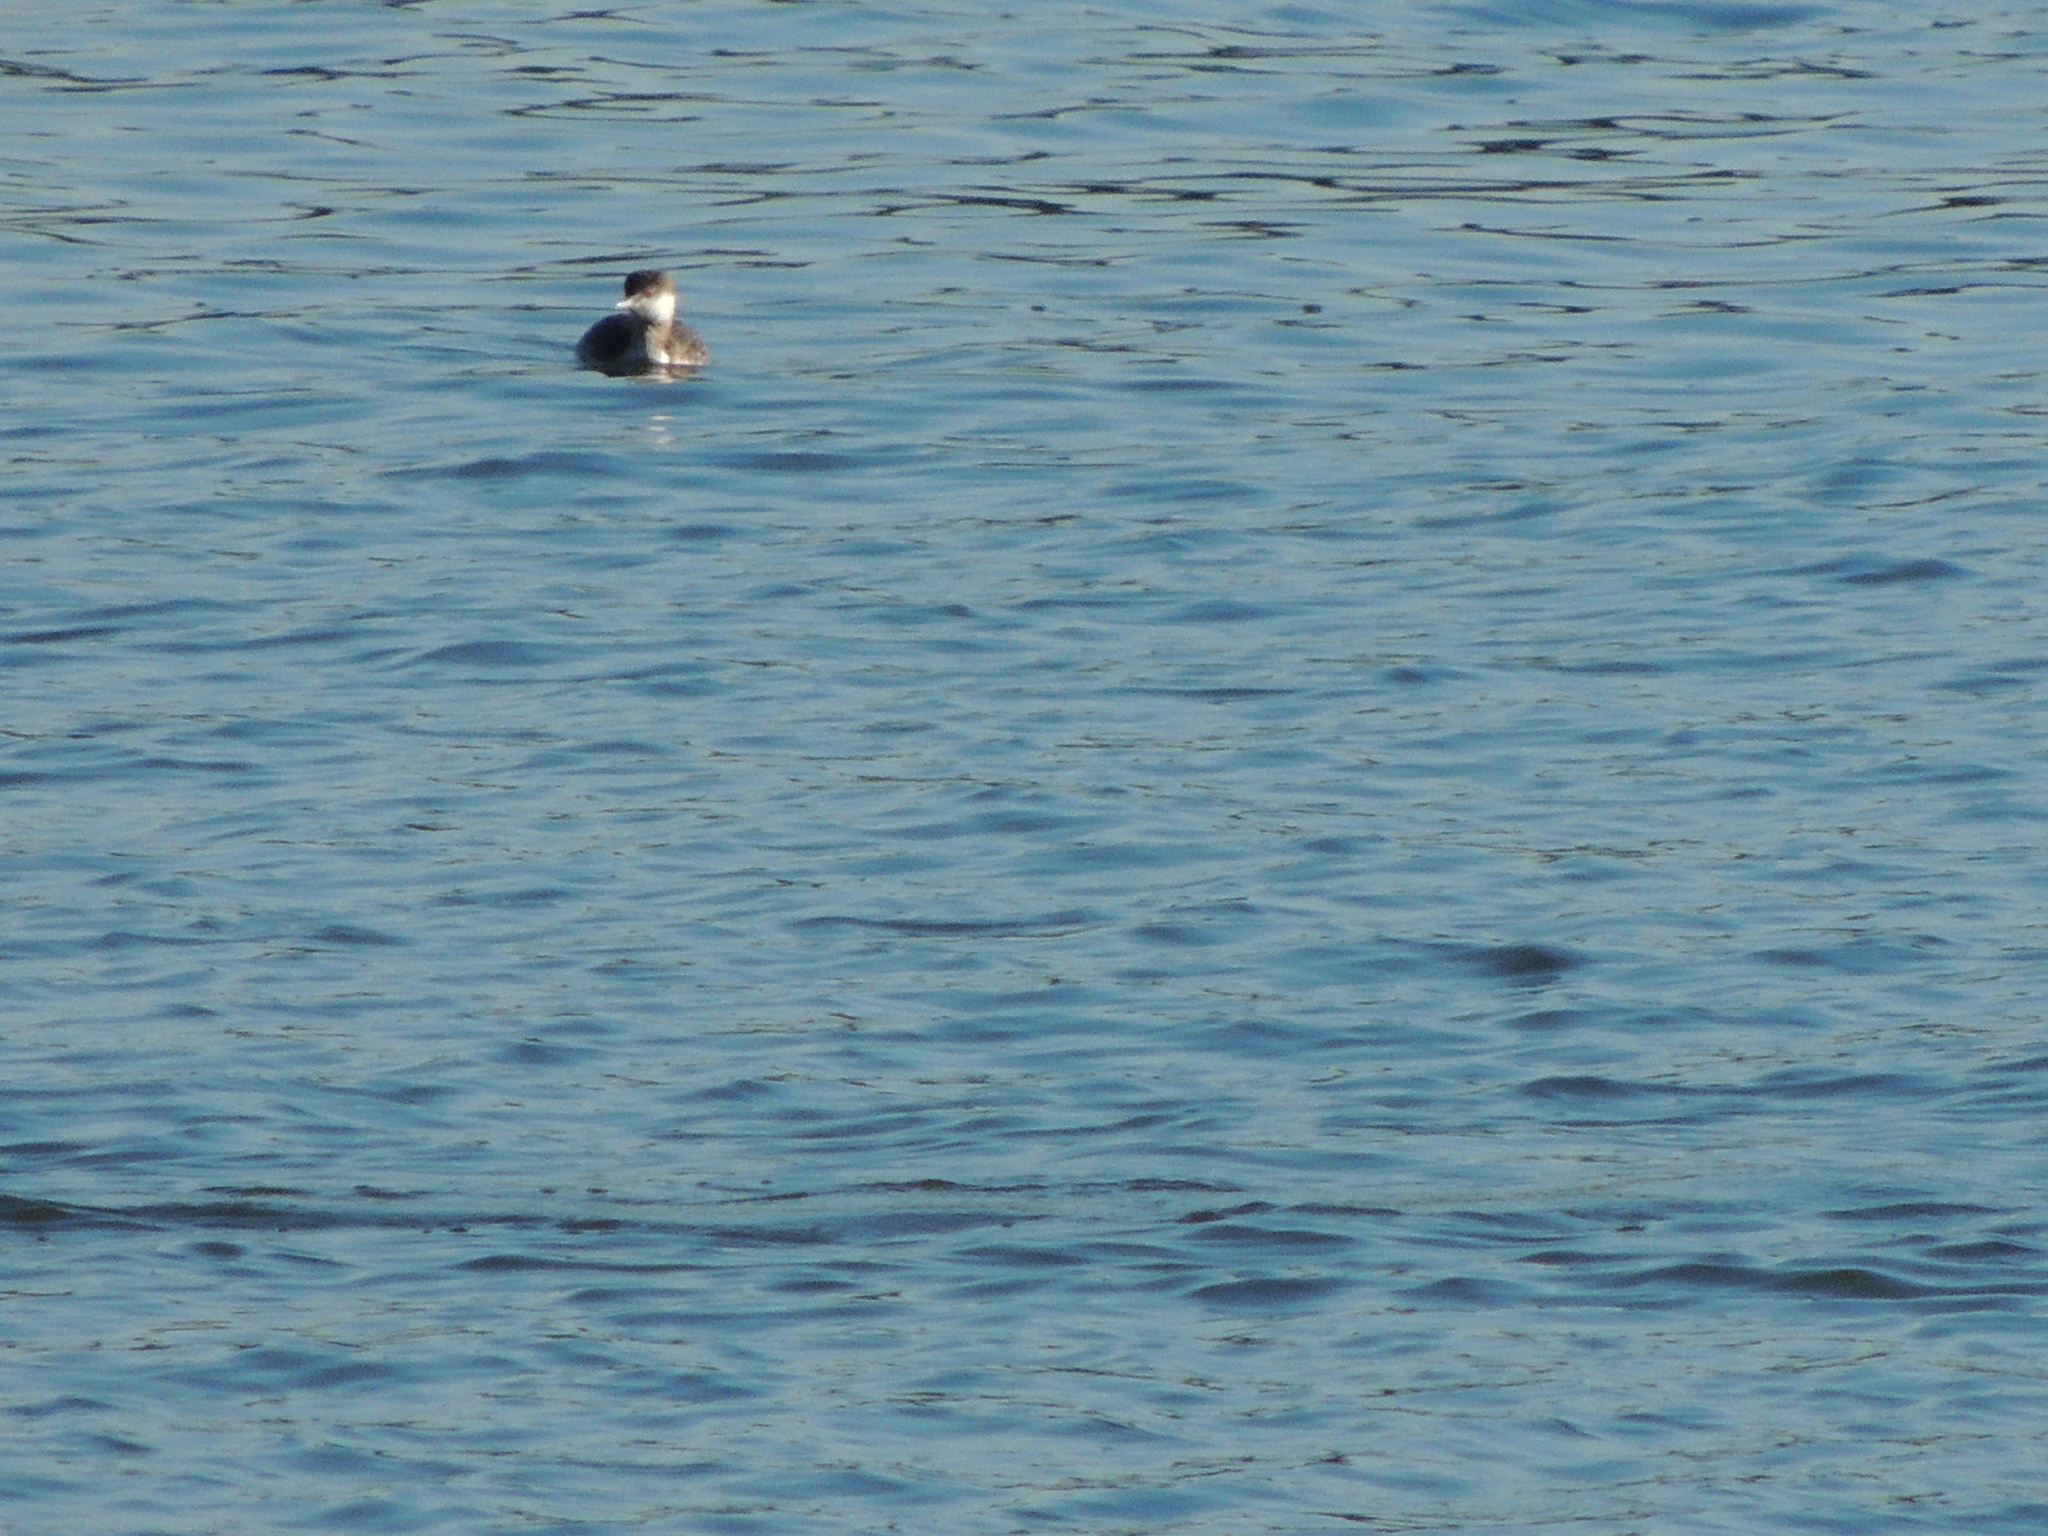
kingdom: Animalia
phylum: Chordata
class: Aves
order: Podicipediformes
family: Podicipedidae
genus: Podiceps
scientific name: Podiceps auritus
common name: Horned grebe
